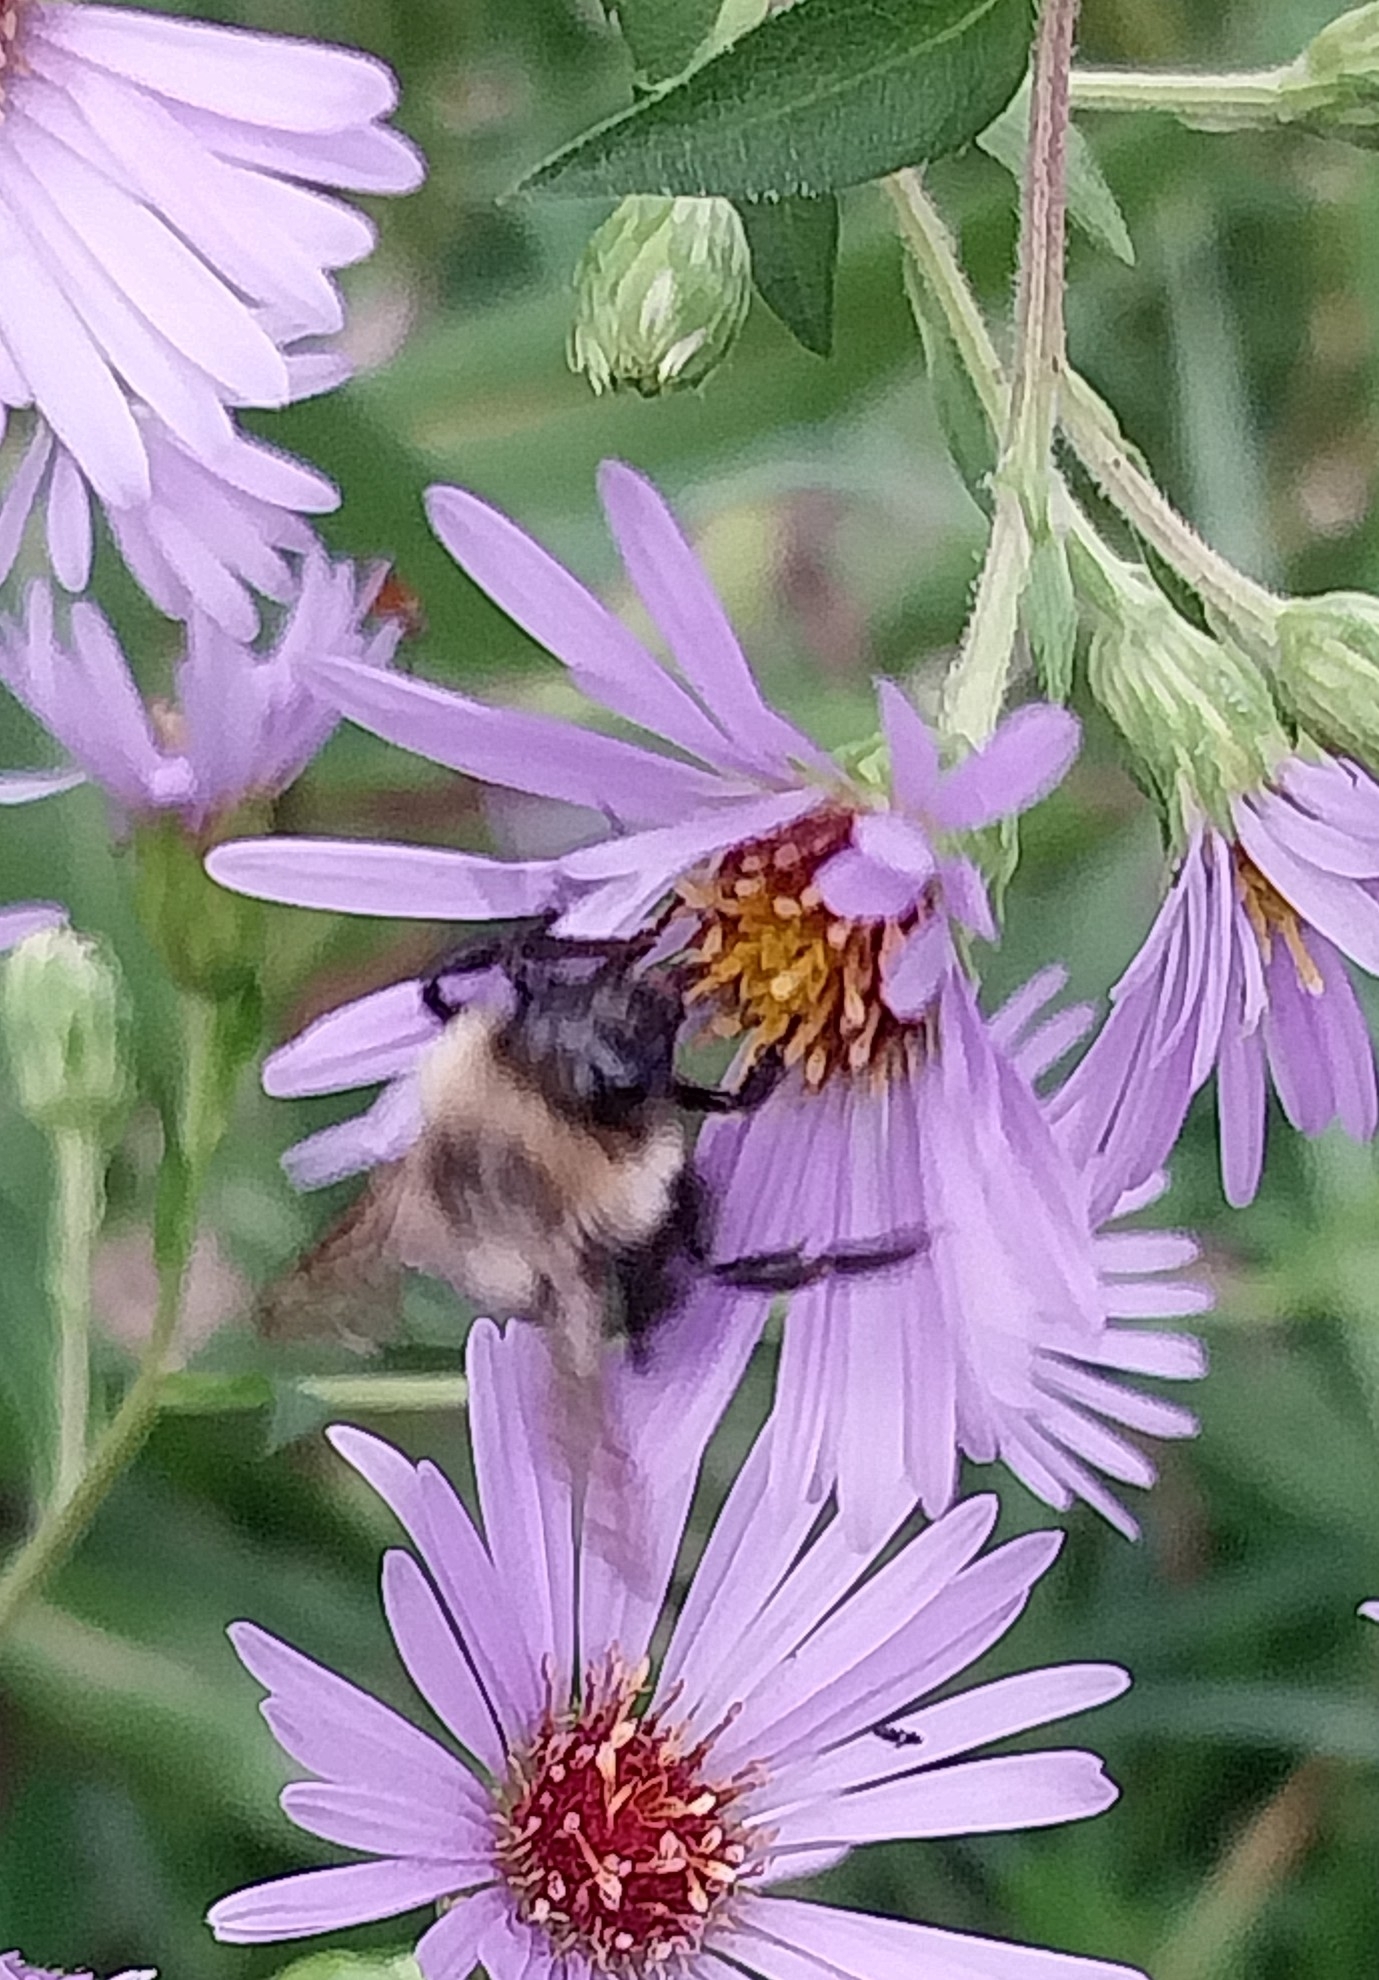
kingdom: Animalia
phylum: Arthropoda
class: Insecta
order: Hymenoptera
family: Apidae
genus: Bombus
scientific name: Bombus impatiens
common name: Common eastern bumble bee
